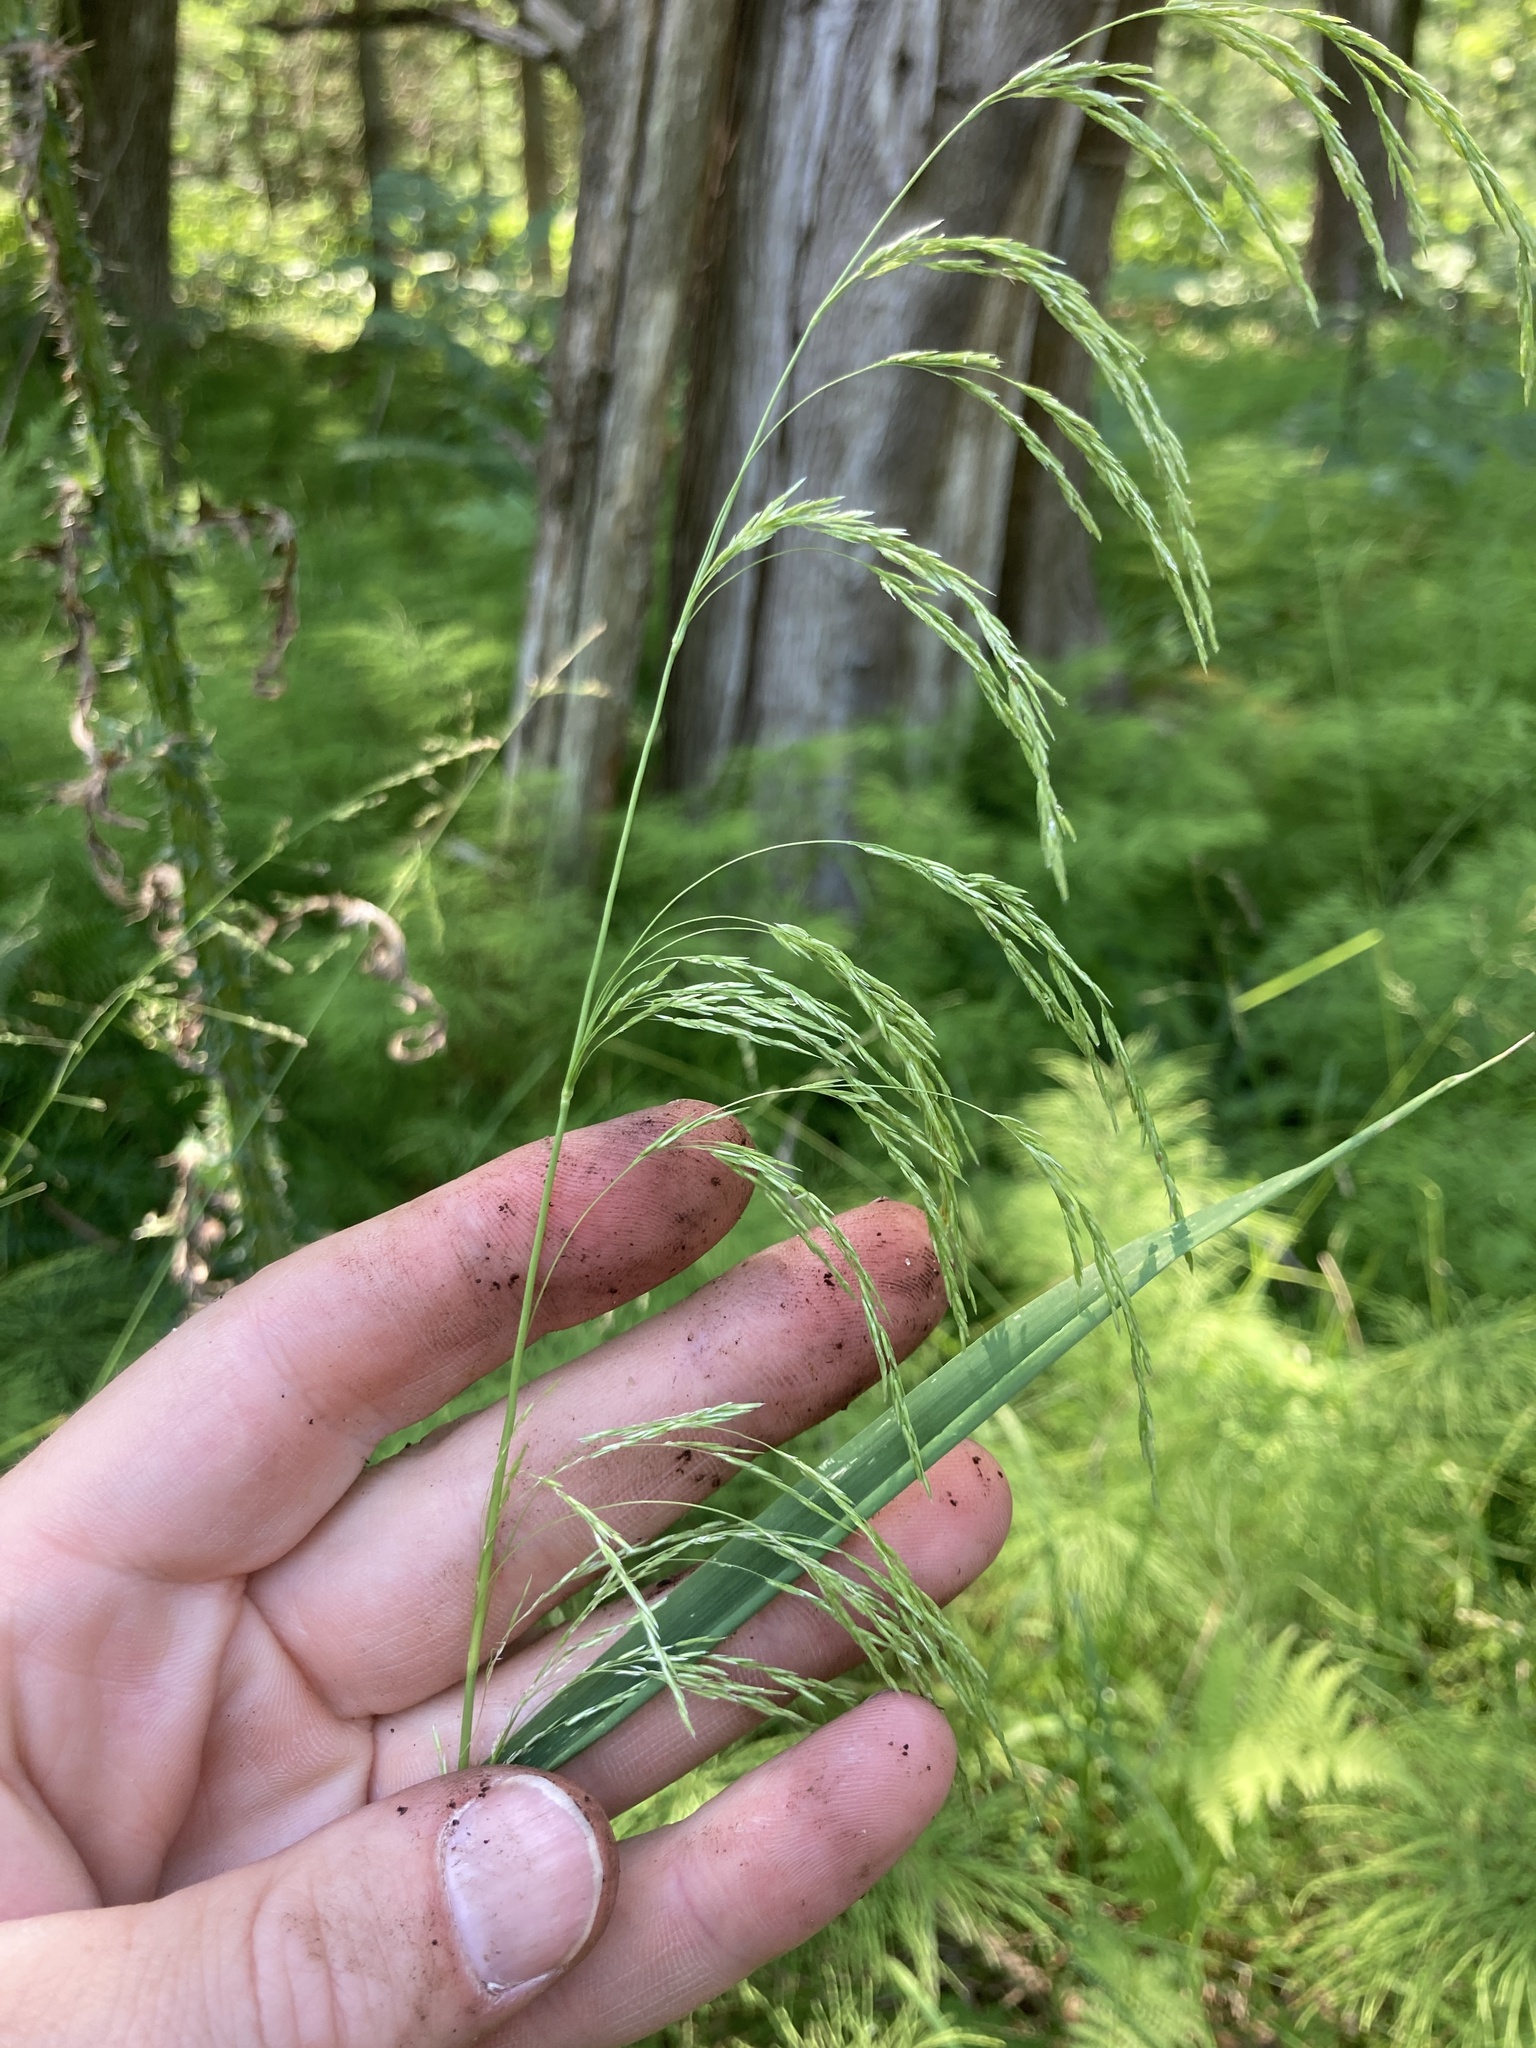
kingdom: Plantae
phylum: Tracheophyta
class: Liliopsida
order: Poales
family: Poaceae
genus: Cinna
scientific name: Cinna latifolia
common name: Drooping woodreed
